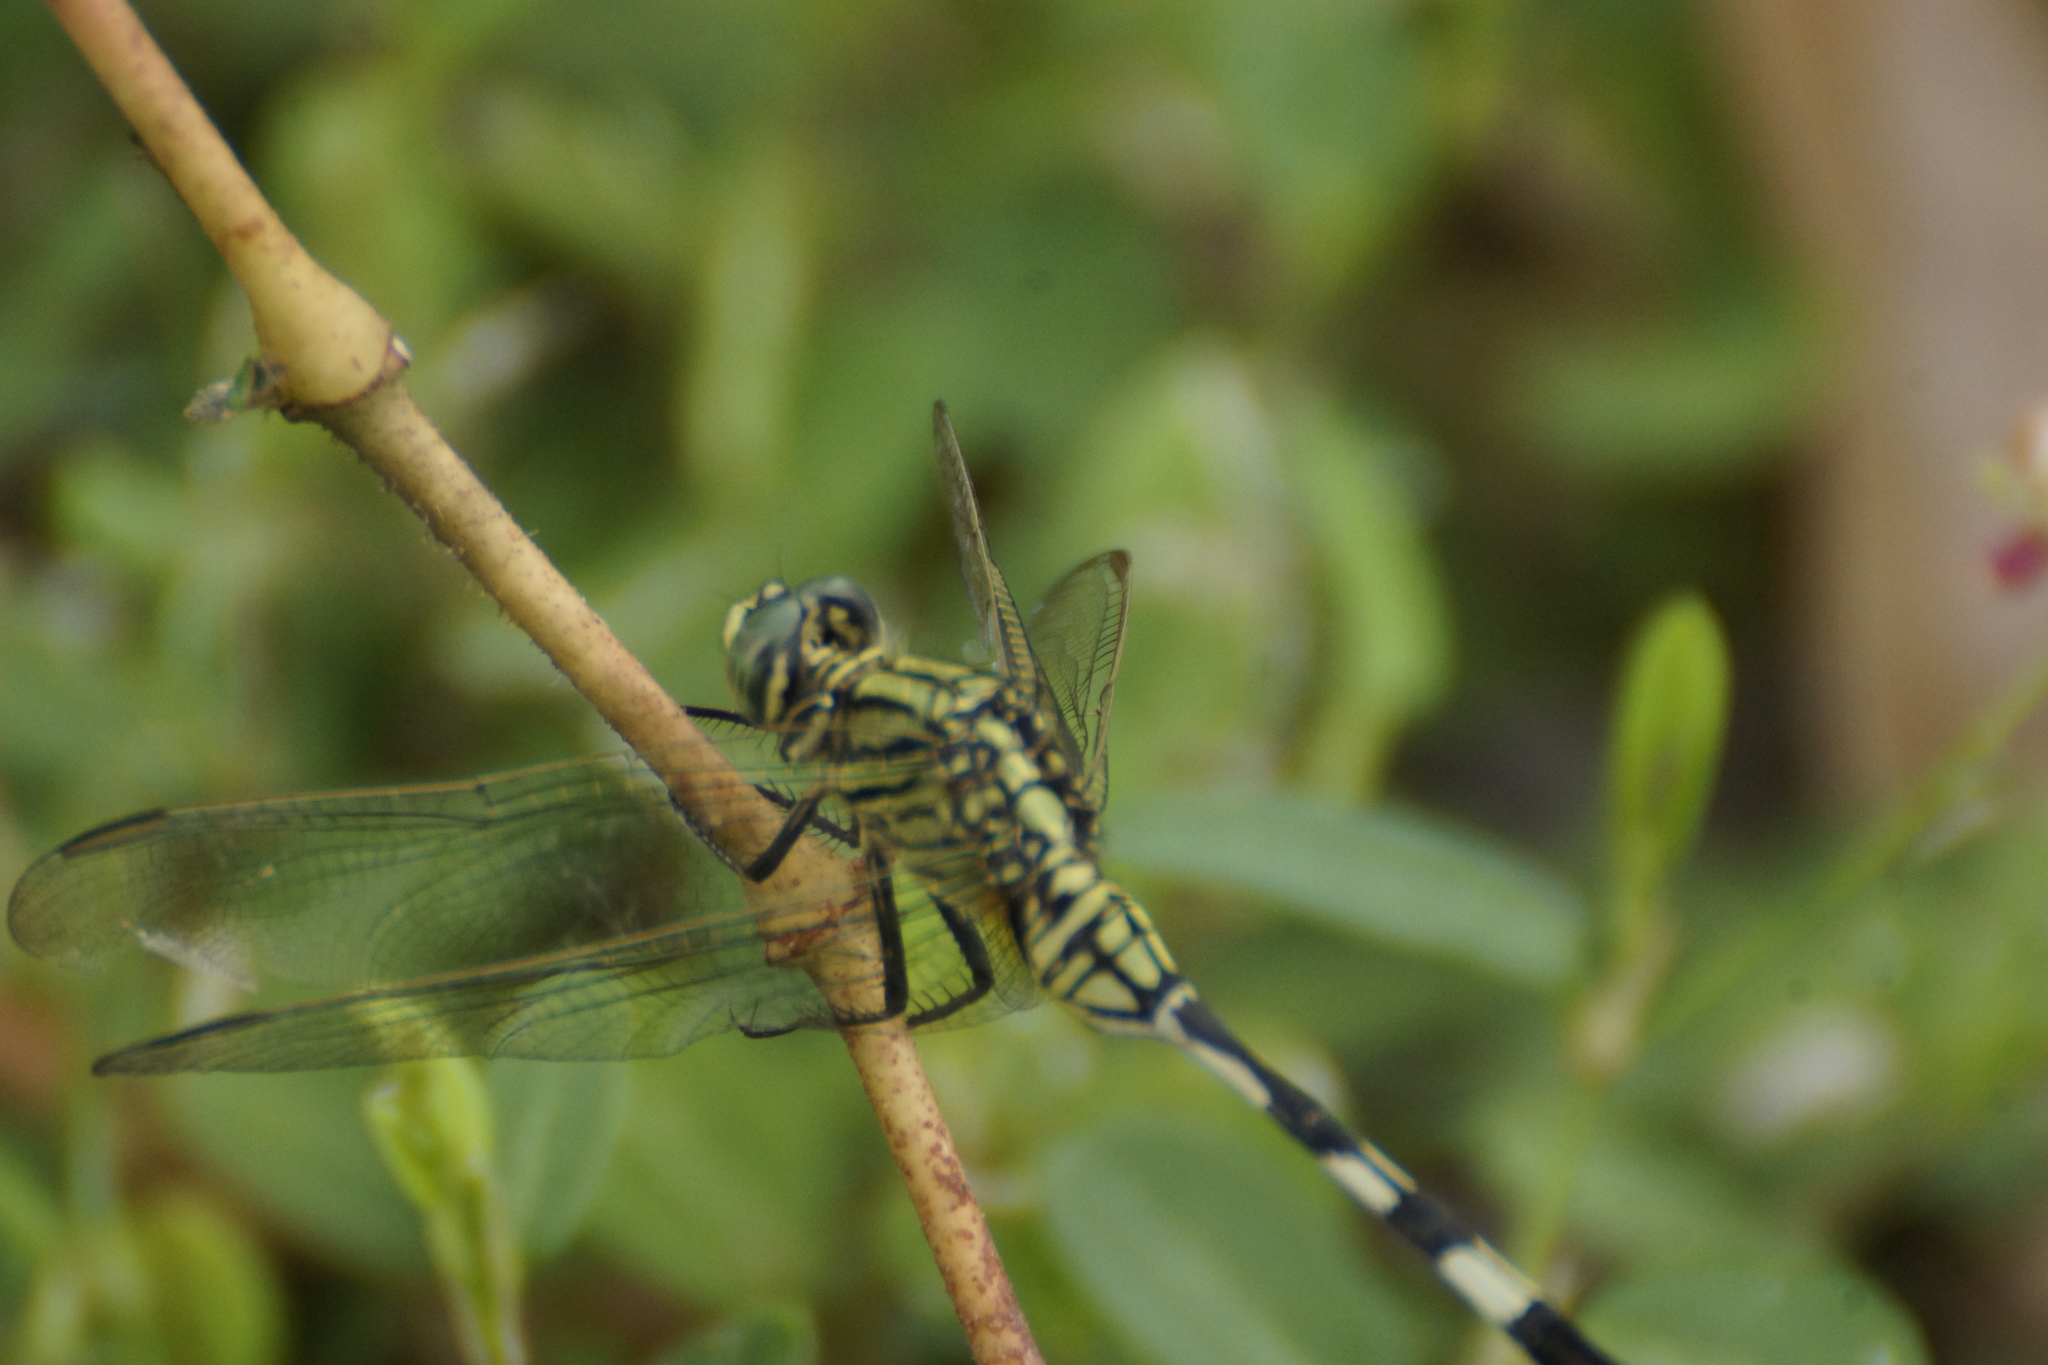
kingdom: Animalia
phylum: Arthropoda
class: Insecta
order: Odonata
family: Libellulidae
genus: Orthetrum
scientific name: Orthetrum sabina
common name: Slender skimmer
